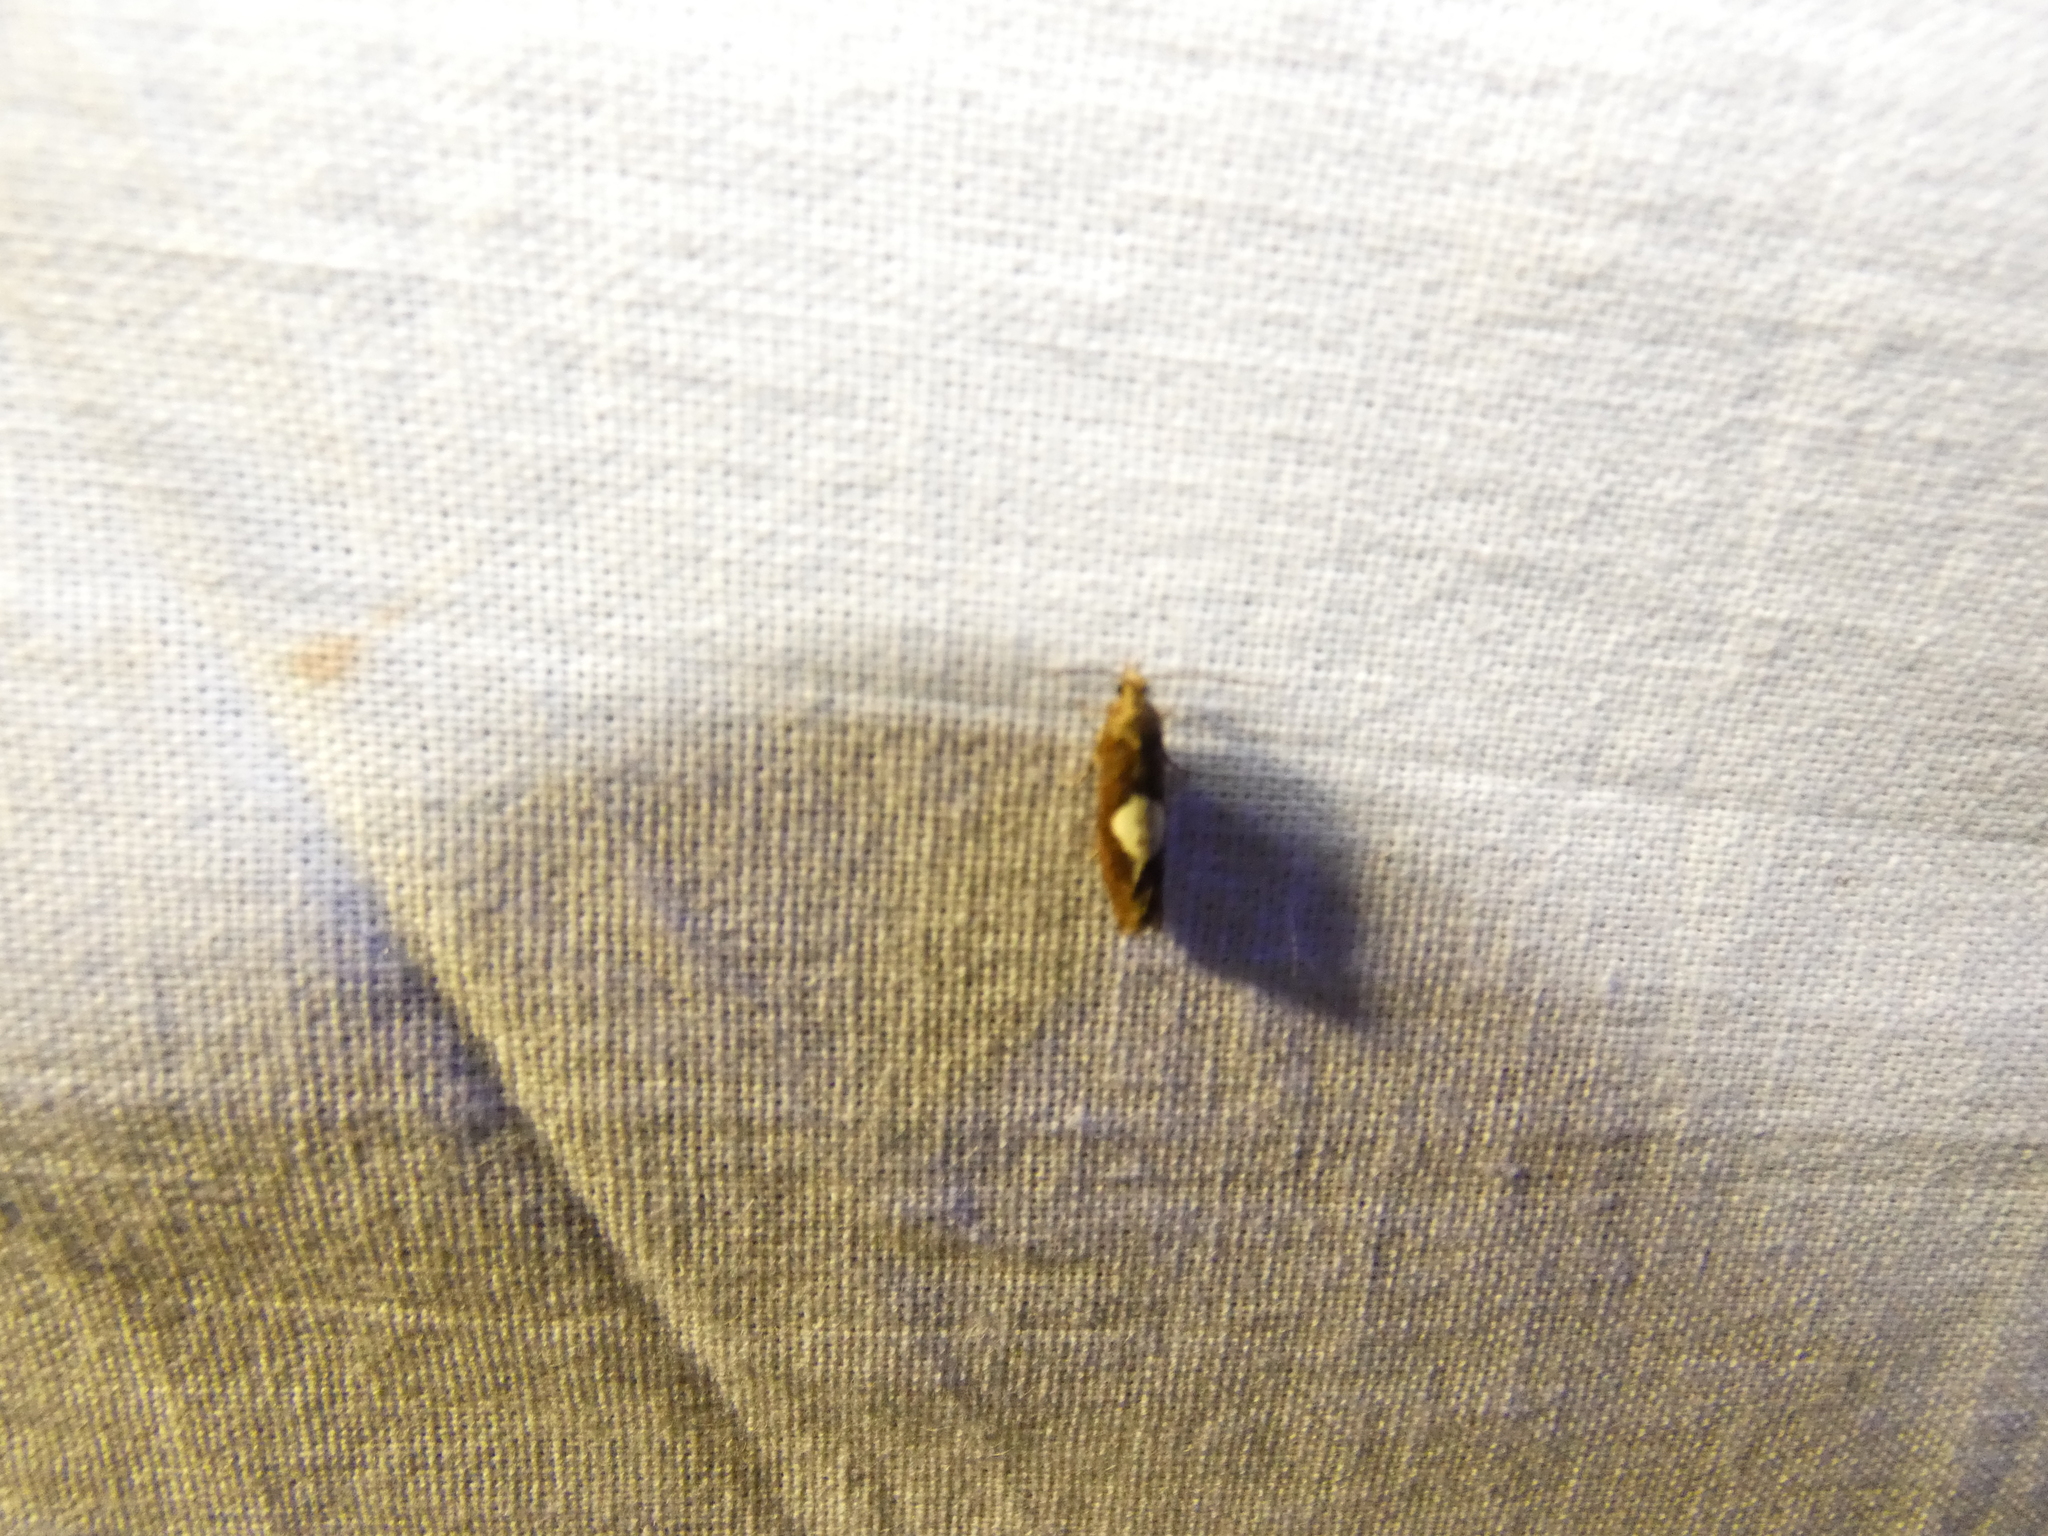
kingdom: Animalia
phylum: Arthropoda
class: Insecta
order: Lepidoptera
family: Tortricidae
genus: Epinotia
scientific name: Epinotia brunnichana
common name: Large birch bell
